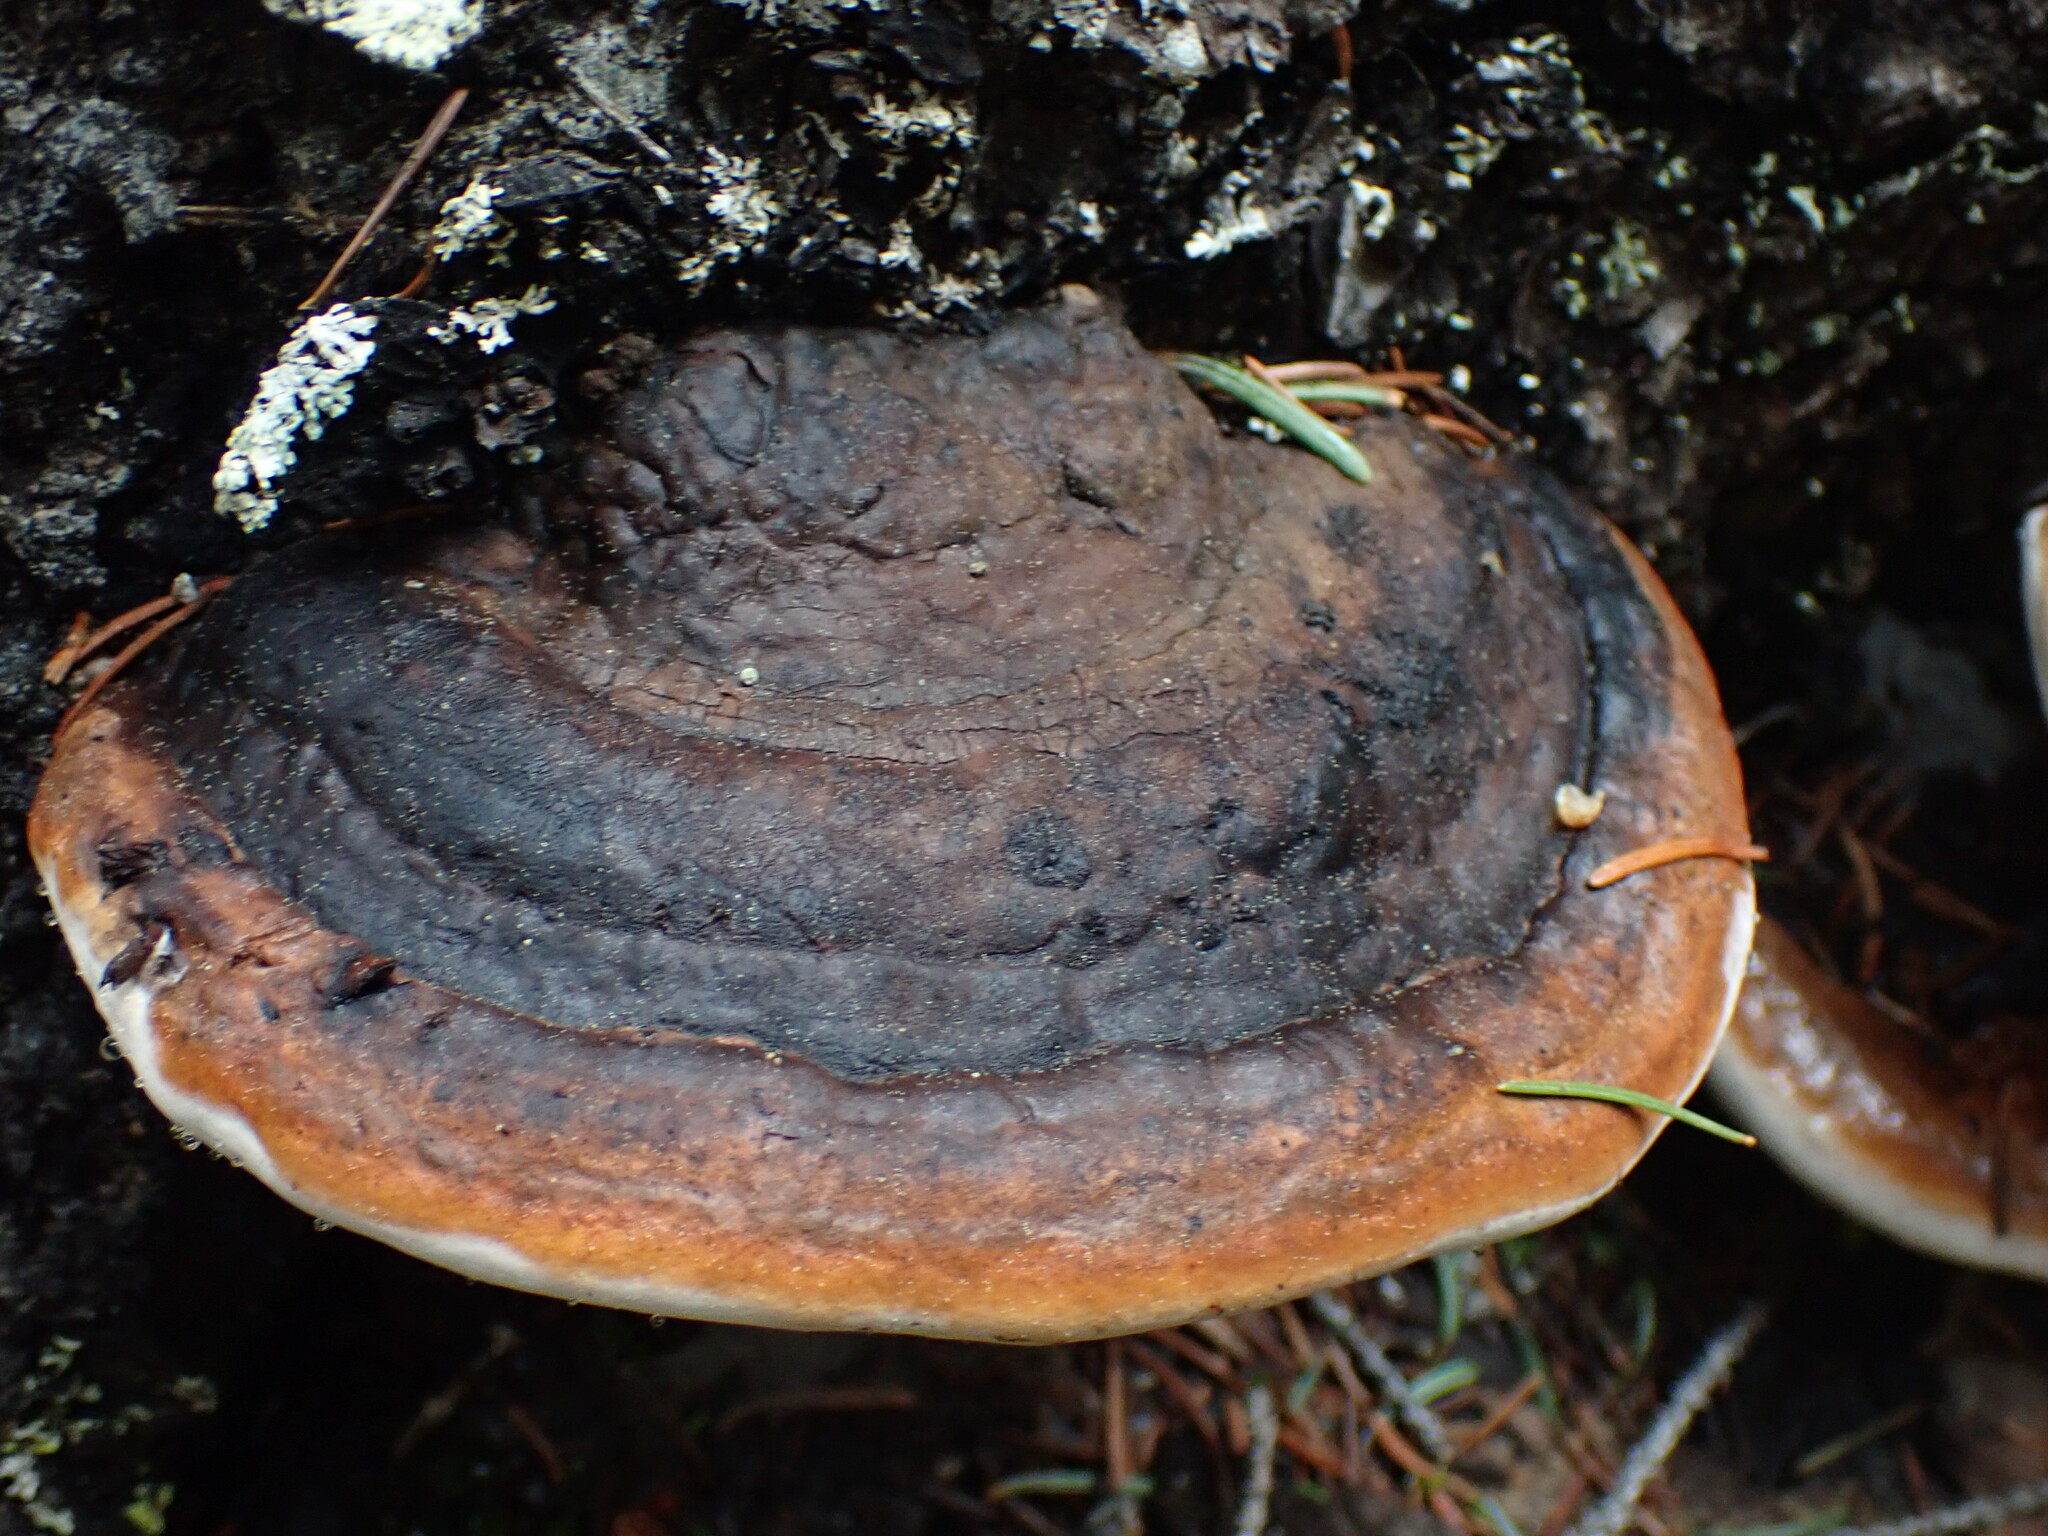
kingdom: Fungi
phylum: Basidiomycota
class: Agaricomycetes
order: Polyporales
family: Fomitopsidaceae
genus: Fomitopsis
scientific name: Fomitopsis mounceae
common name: Northern red belt
